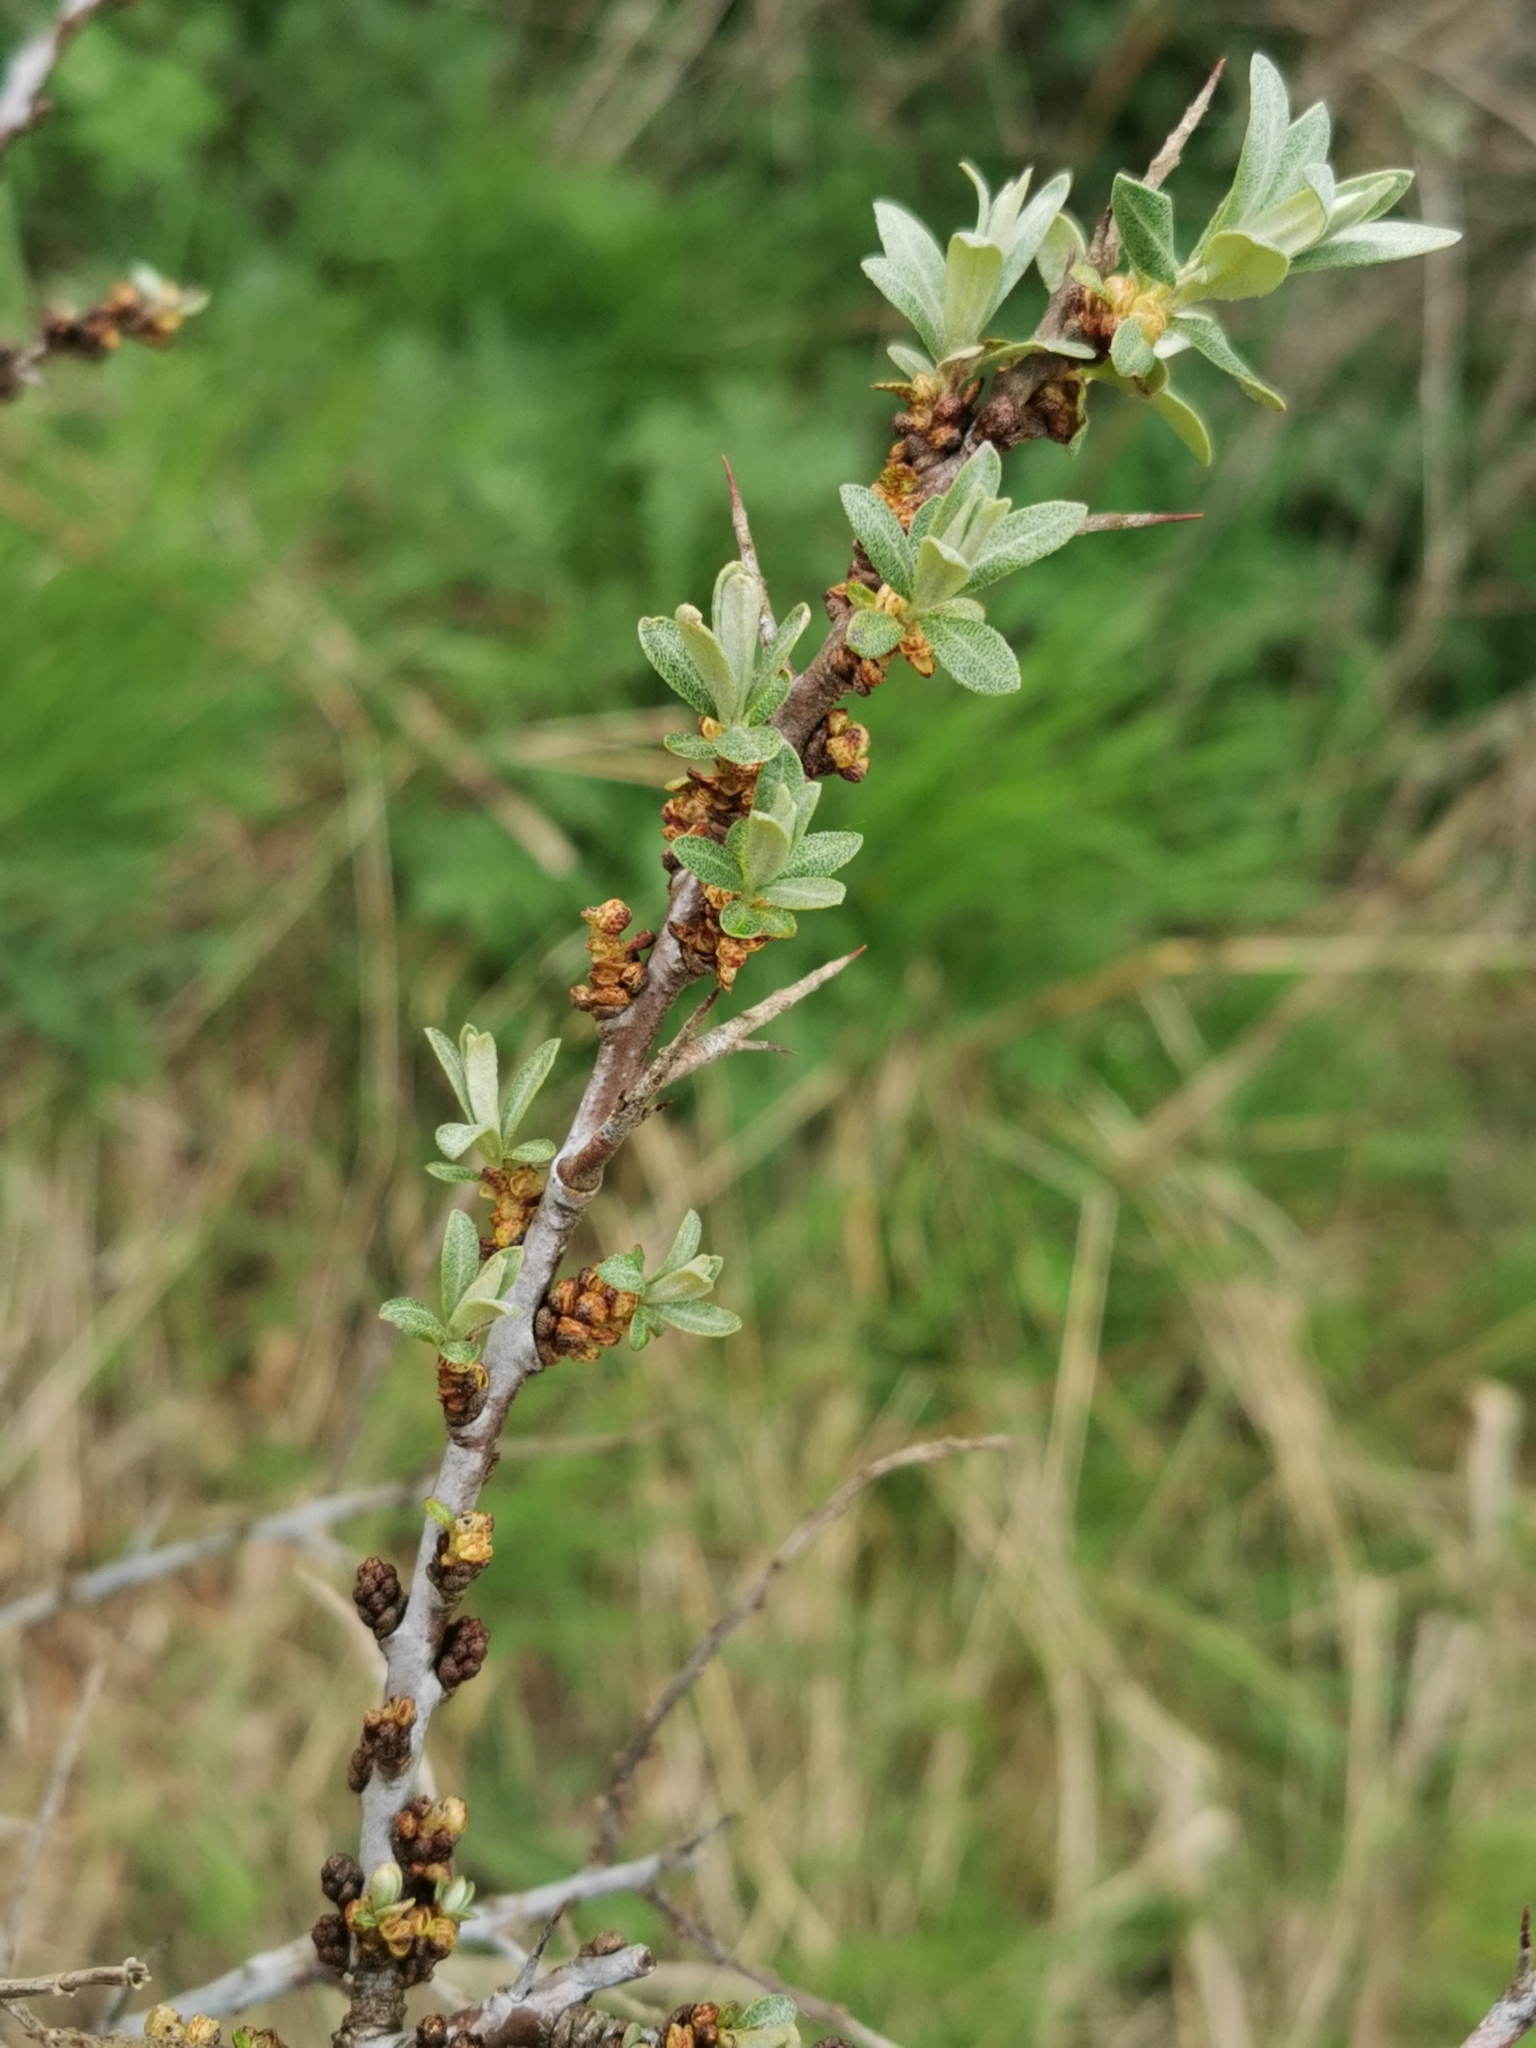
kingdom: Plantae
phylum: Tracheophyta
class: Magnoliopsida
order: Rosales
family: Elaeagnaceae
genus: Hippophae
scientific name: Hippophae rhamnoides
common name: Sea-buckthorn
